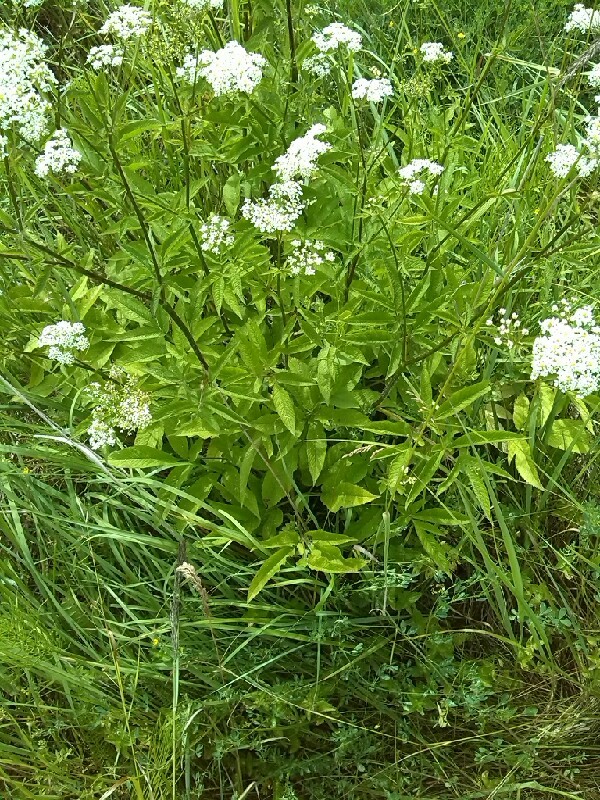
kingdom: Plantae
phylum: Tracheophyta
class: Magnoliopsida
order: Apiales
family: Apiaceae
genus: Chaerophyllum
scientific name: Chaerophyllum aromaticum
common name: Broadleaf chervil
